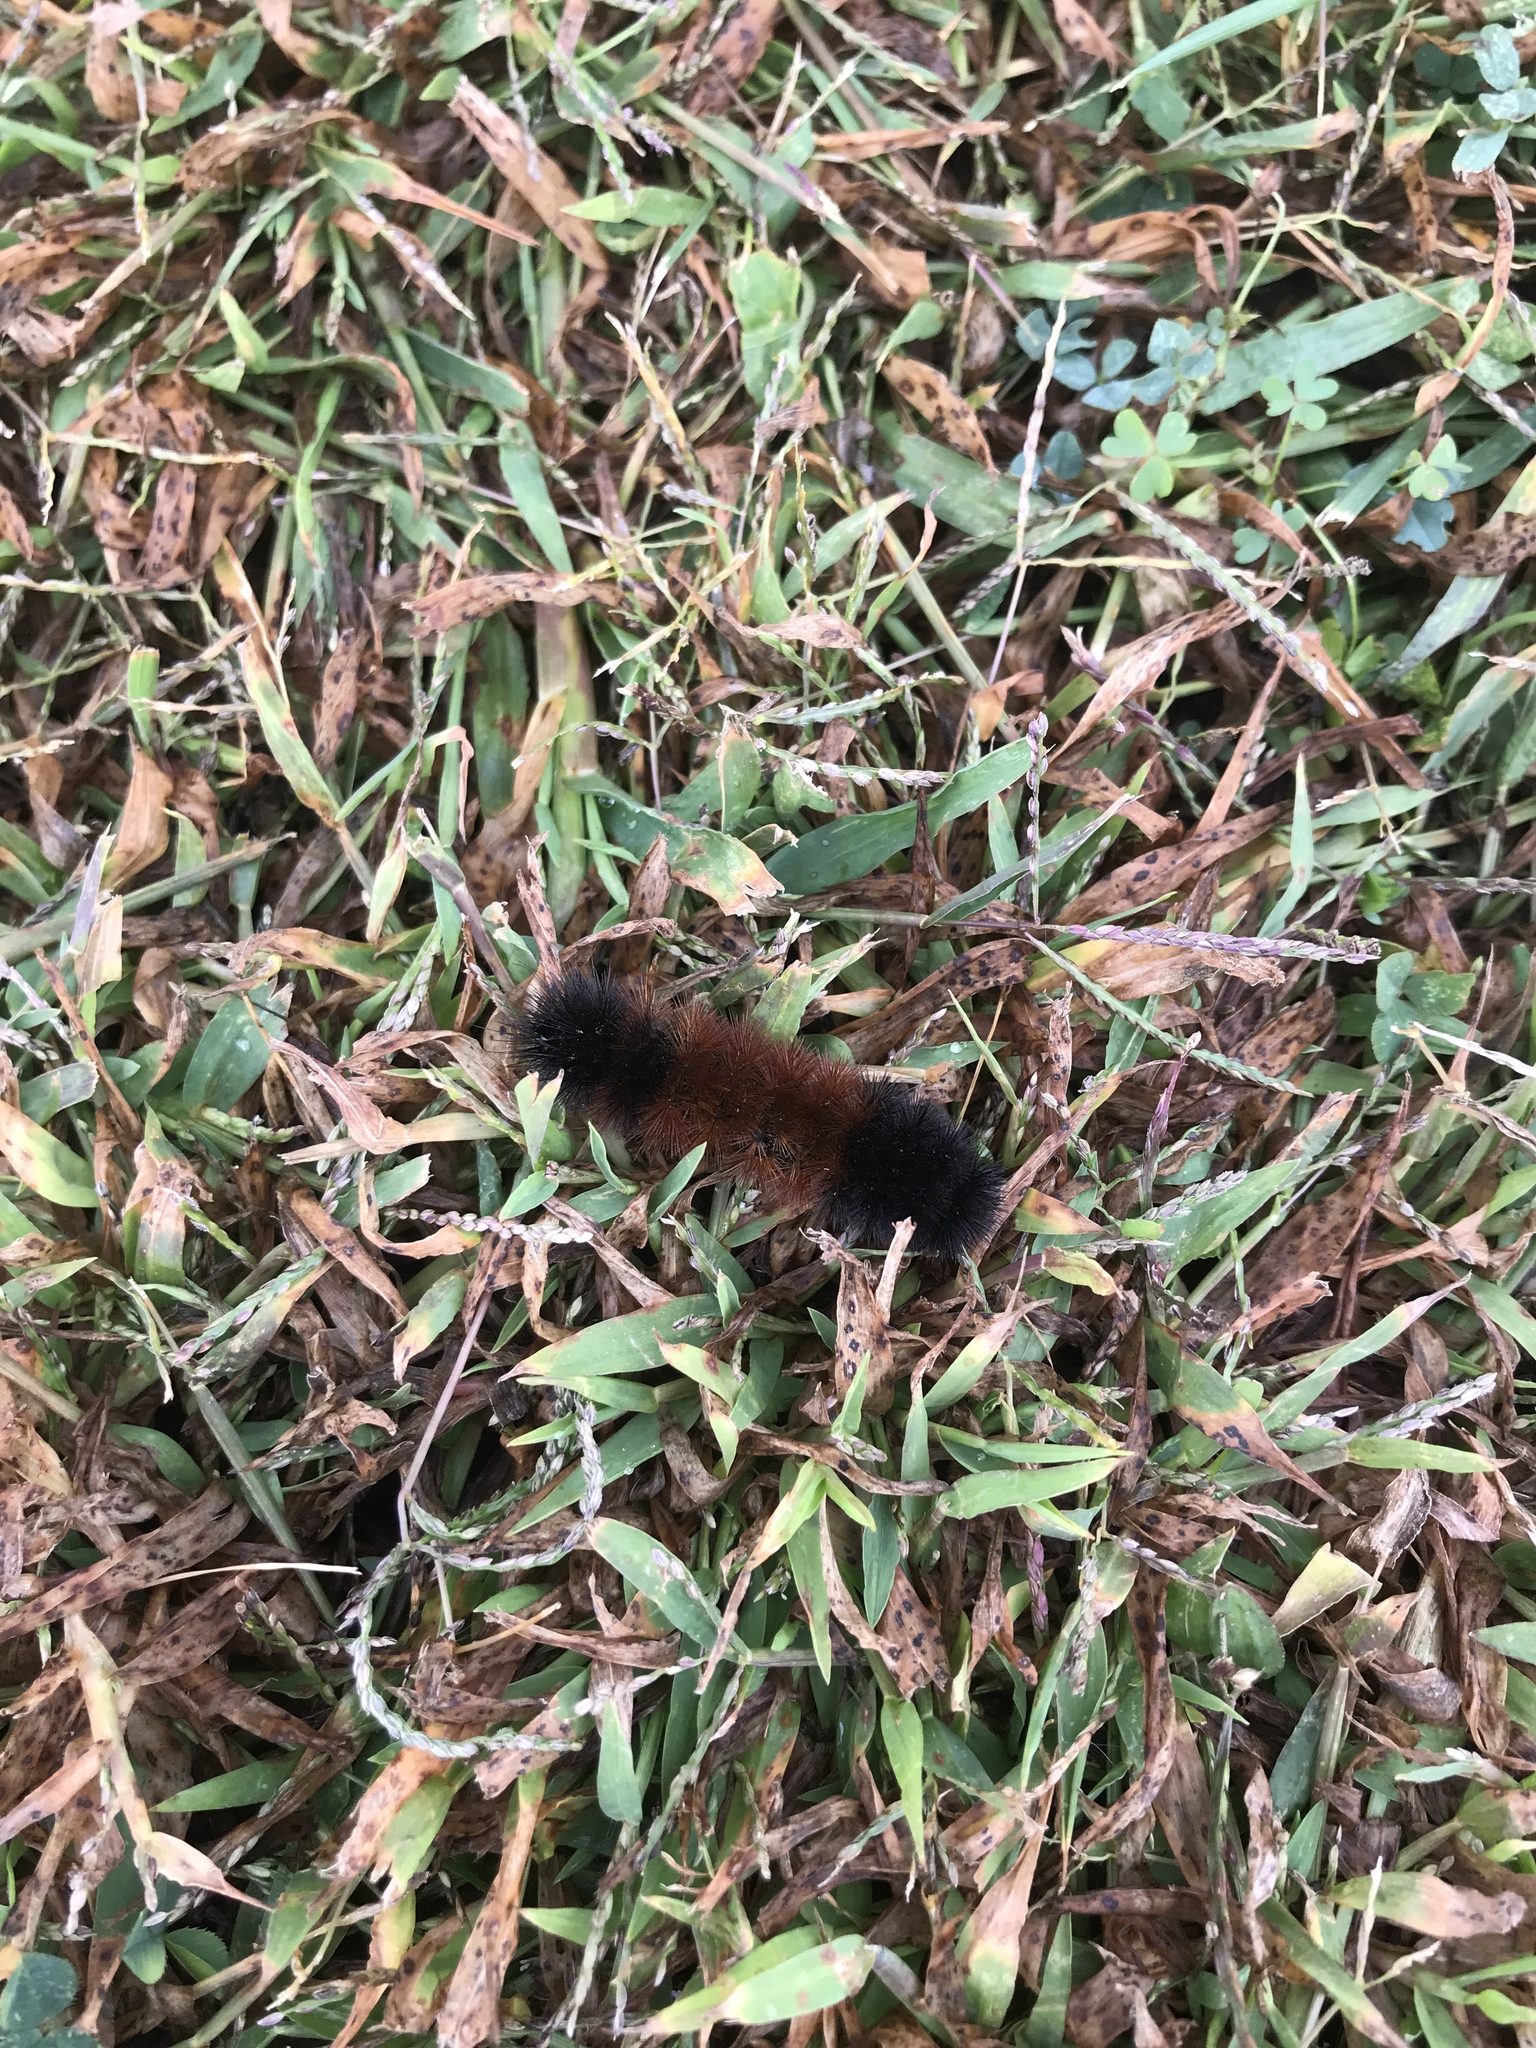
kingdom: Animalia
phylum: Arthropoda
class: Insecta
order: Lepidoptera
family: Erebidae
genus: Pyrrharctia
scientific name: Pyrrharctia isabella
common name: Isabella tiger moth
